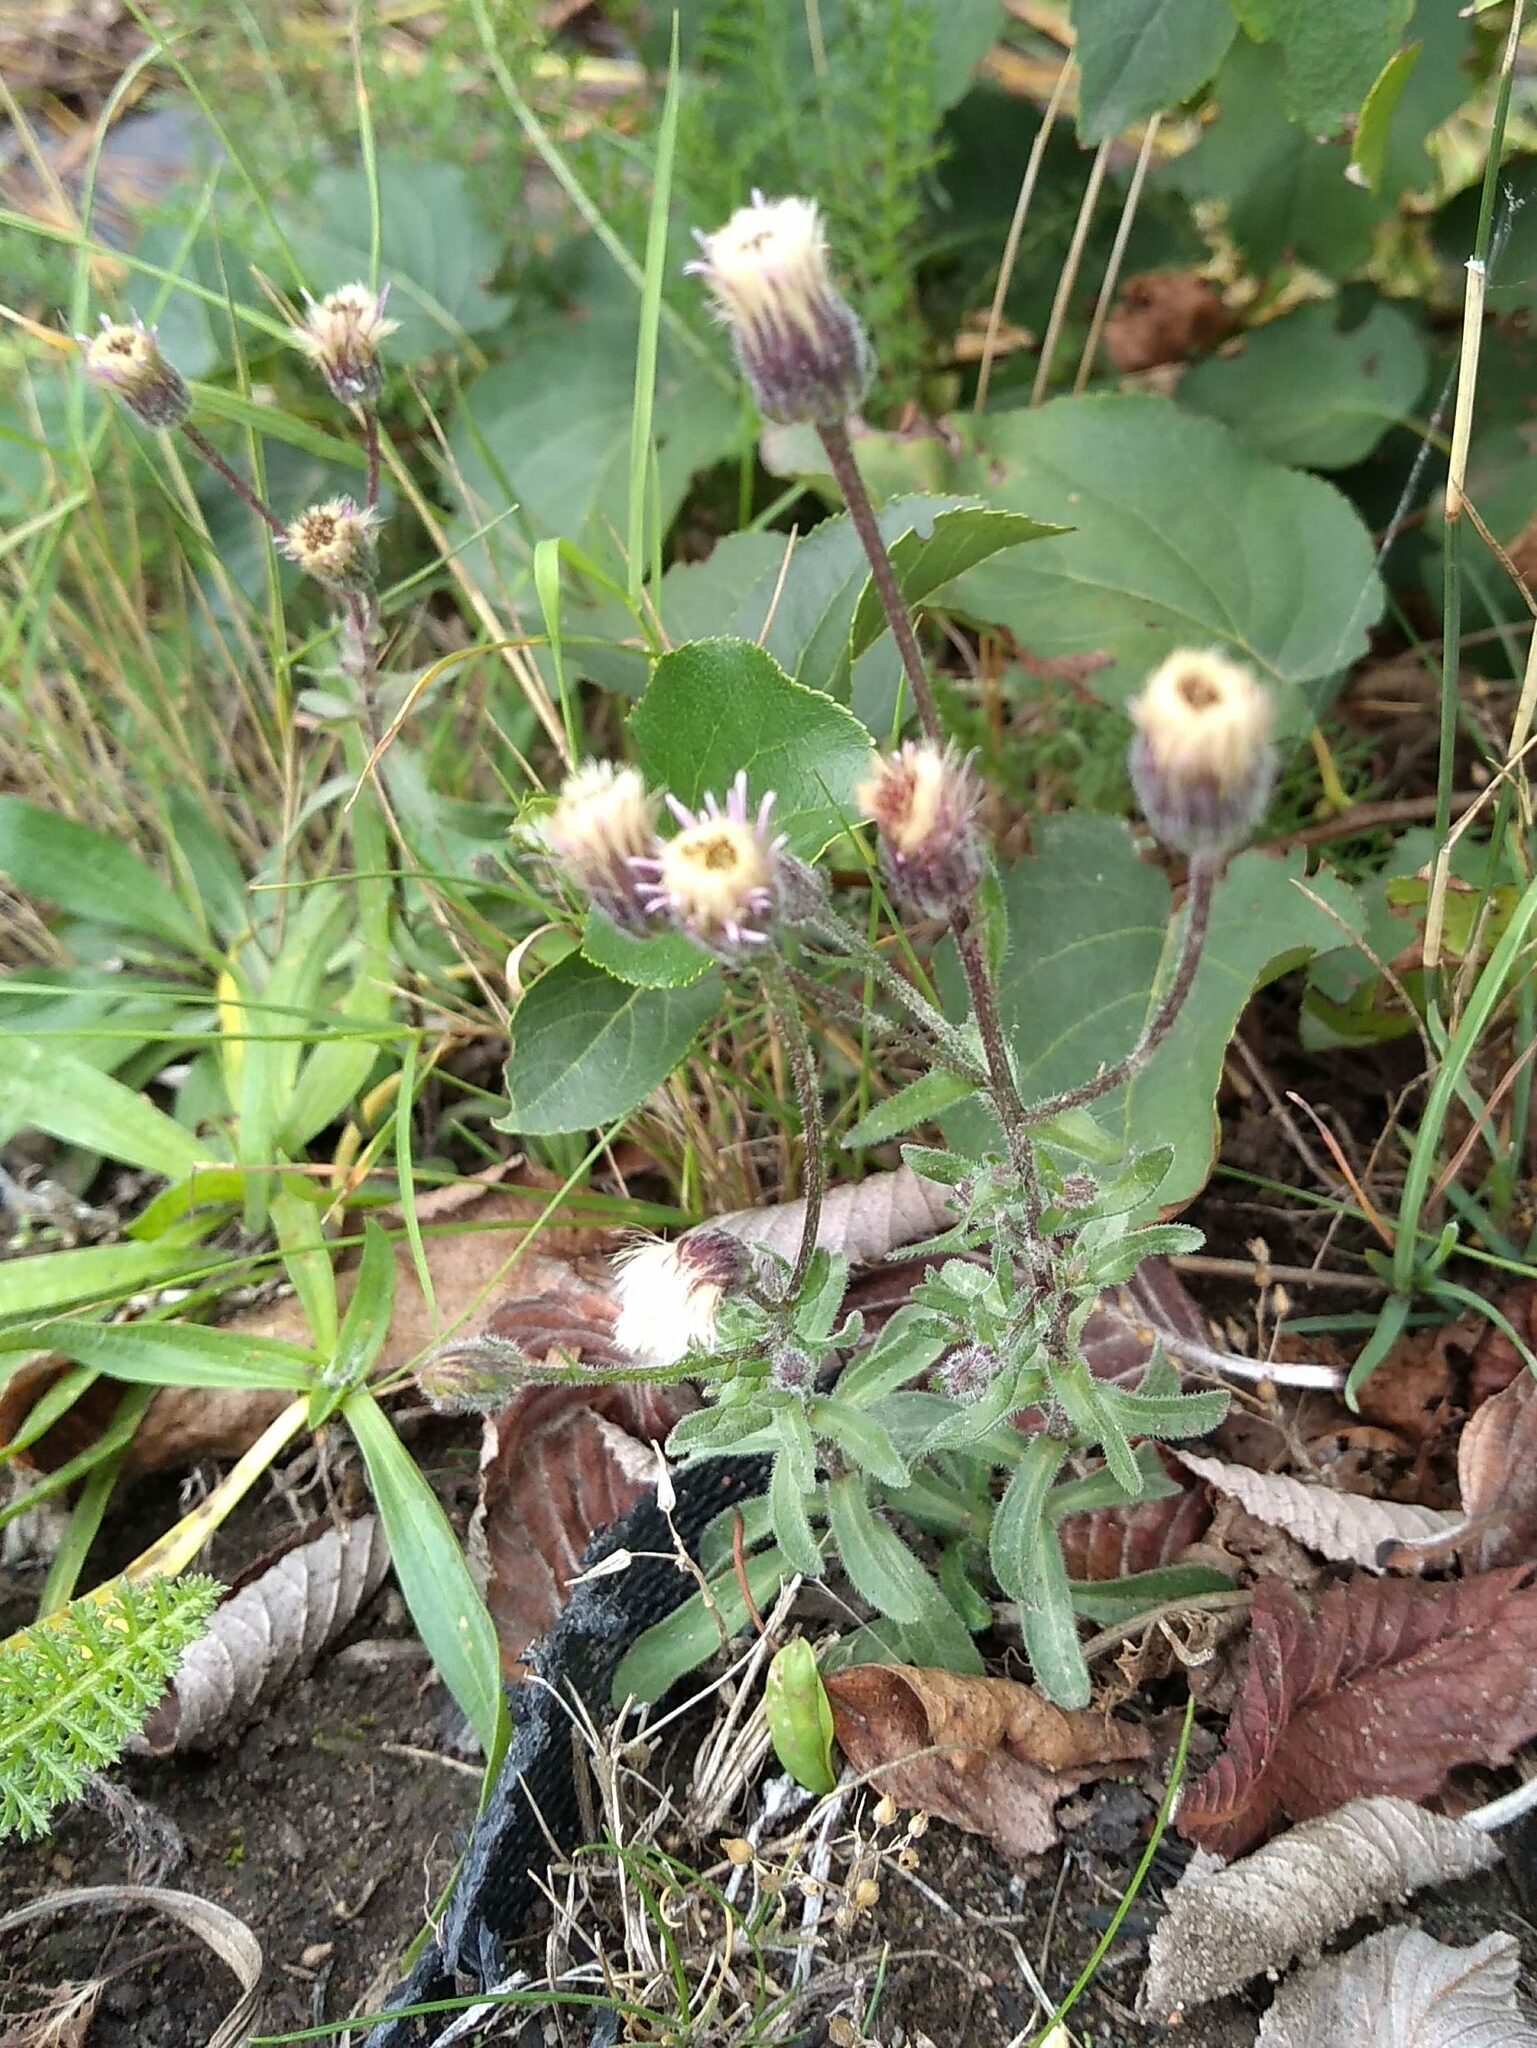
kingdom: Plantae
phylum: Tracheophyta
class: Magnoliopsida
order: Asterales
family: Asteraceae
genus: Erigeron
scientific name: Erigeron acris
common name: Blue fleabane
